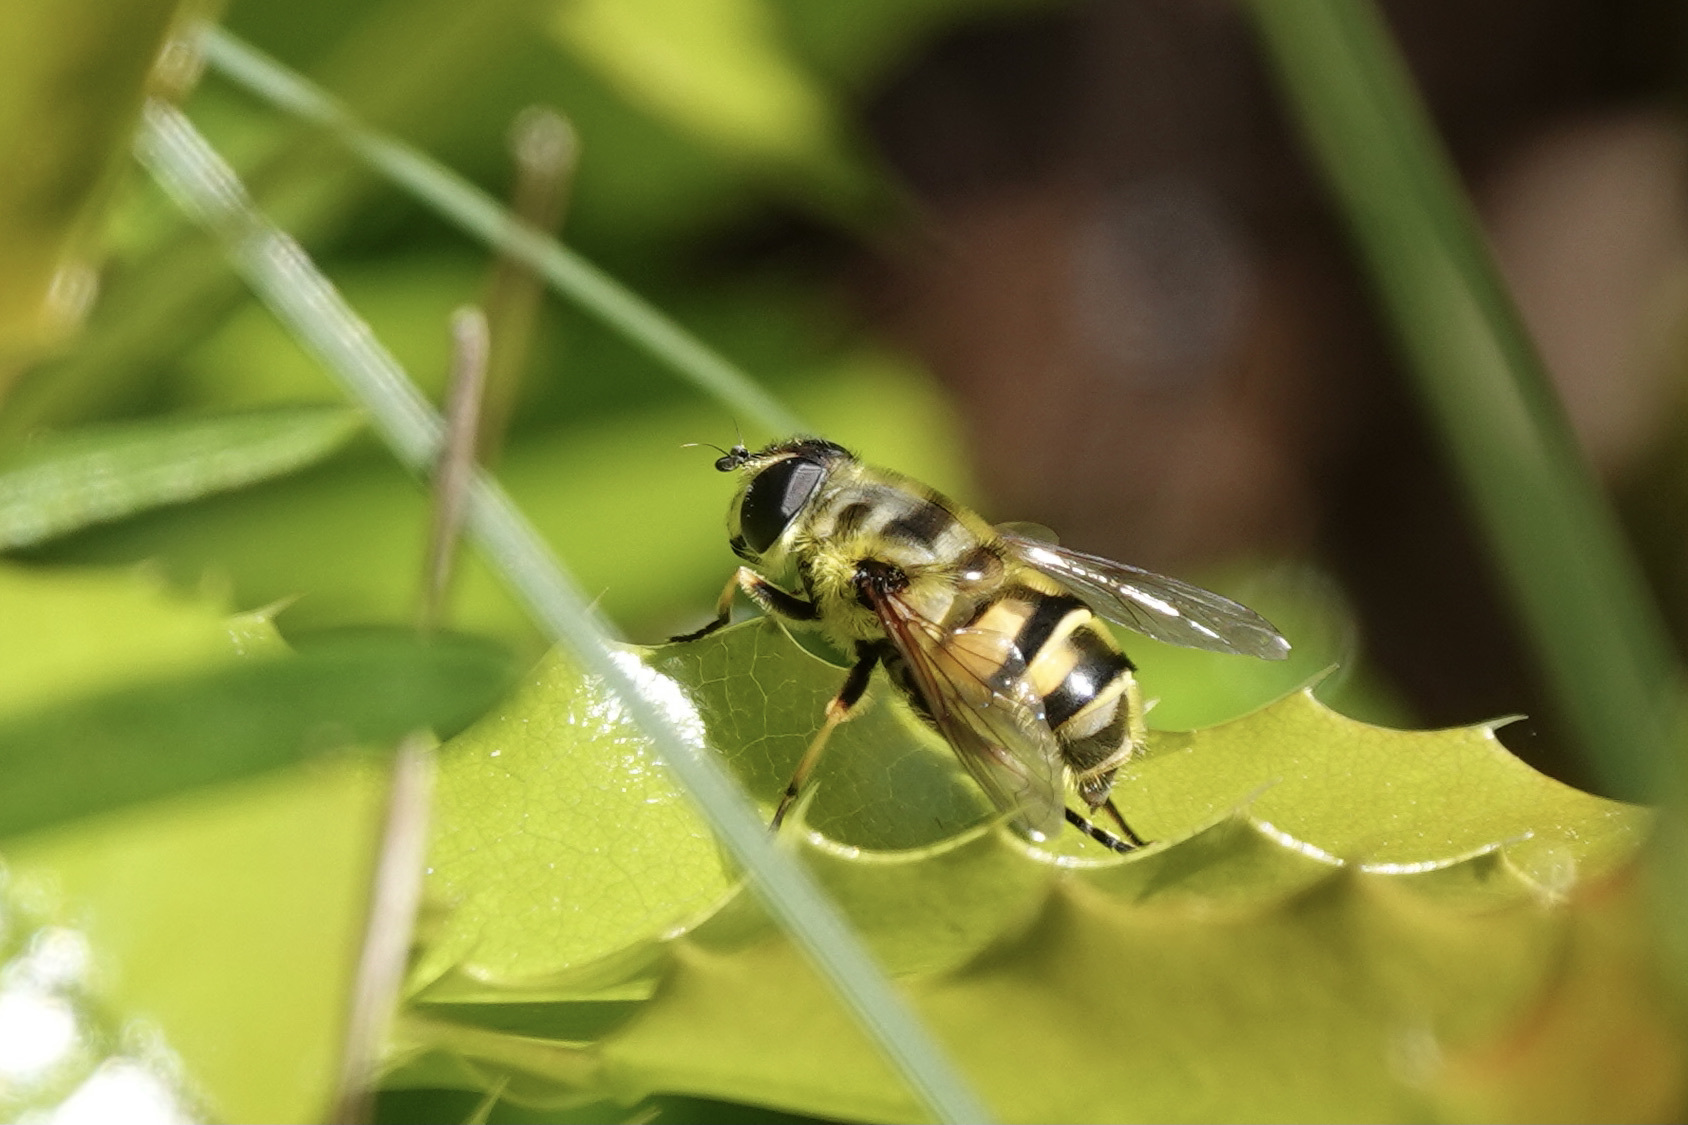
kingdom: Animalia
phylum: Arthropoda
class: Insecta
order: Diptera
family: Syrphidae
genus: Myathropa
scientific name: Myathropa florea
